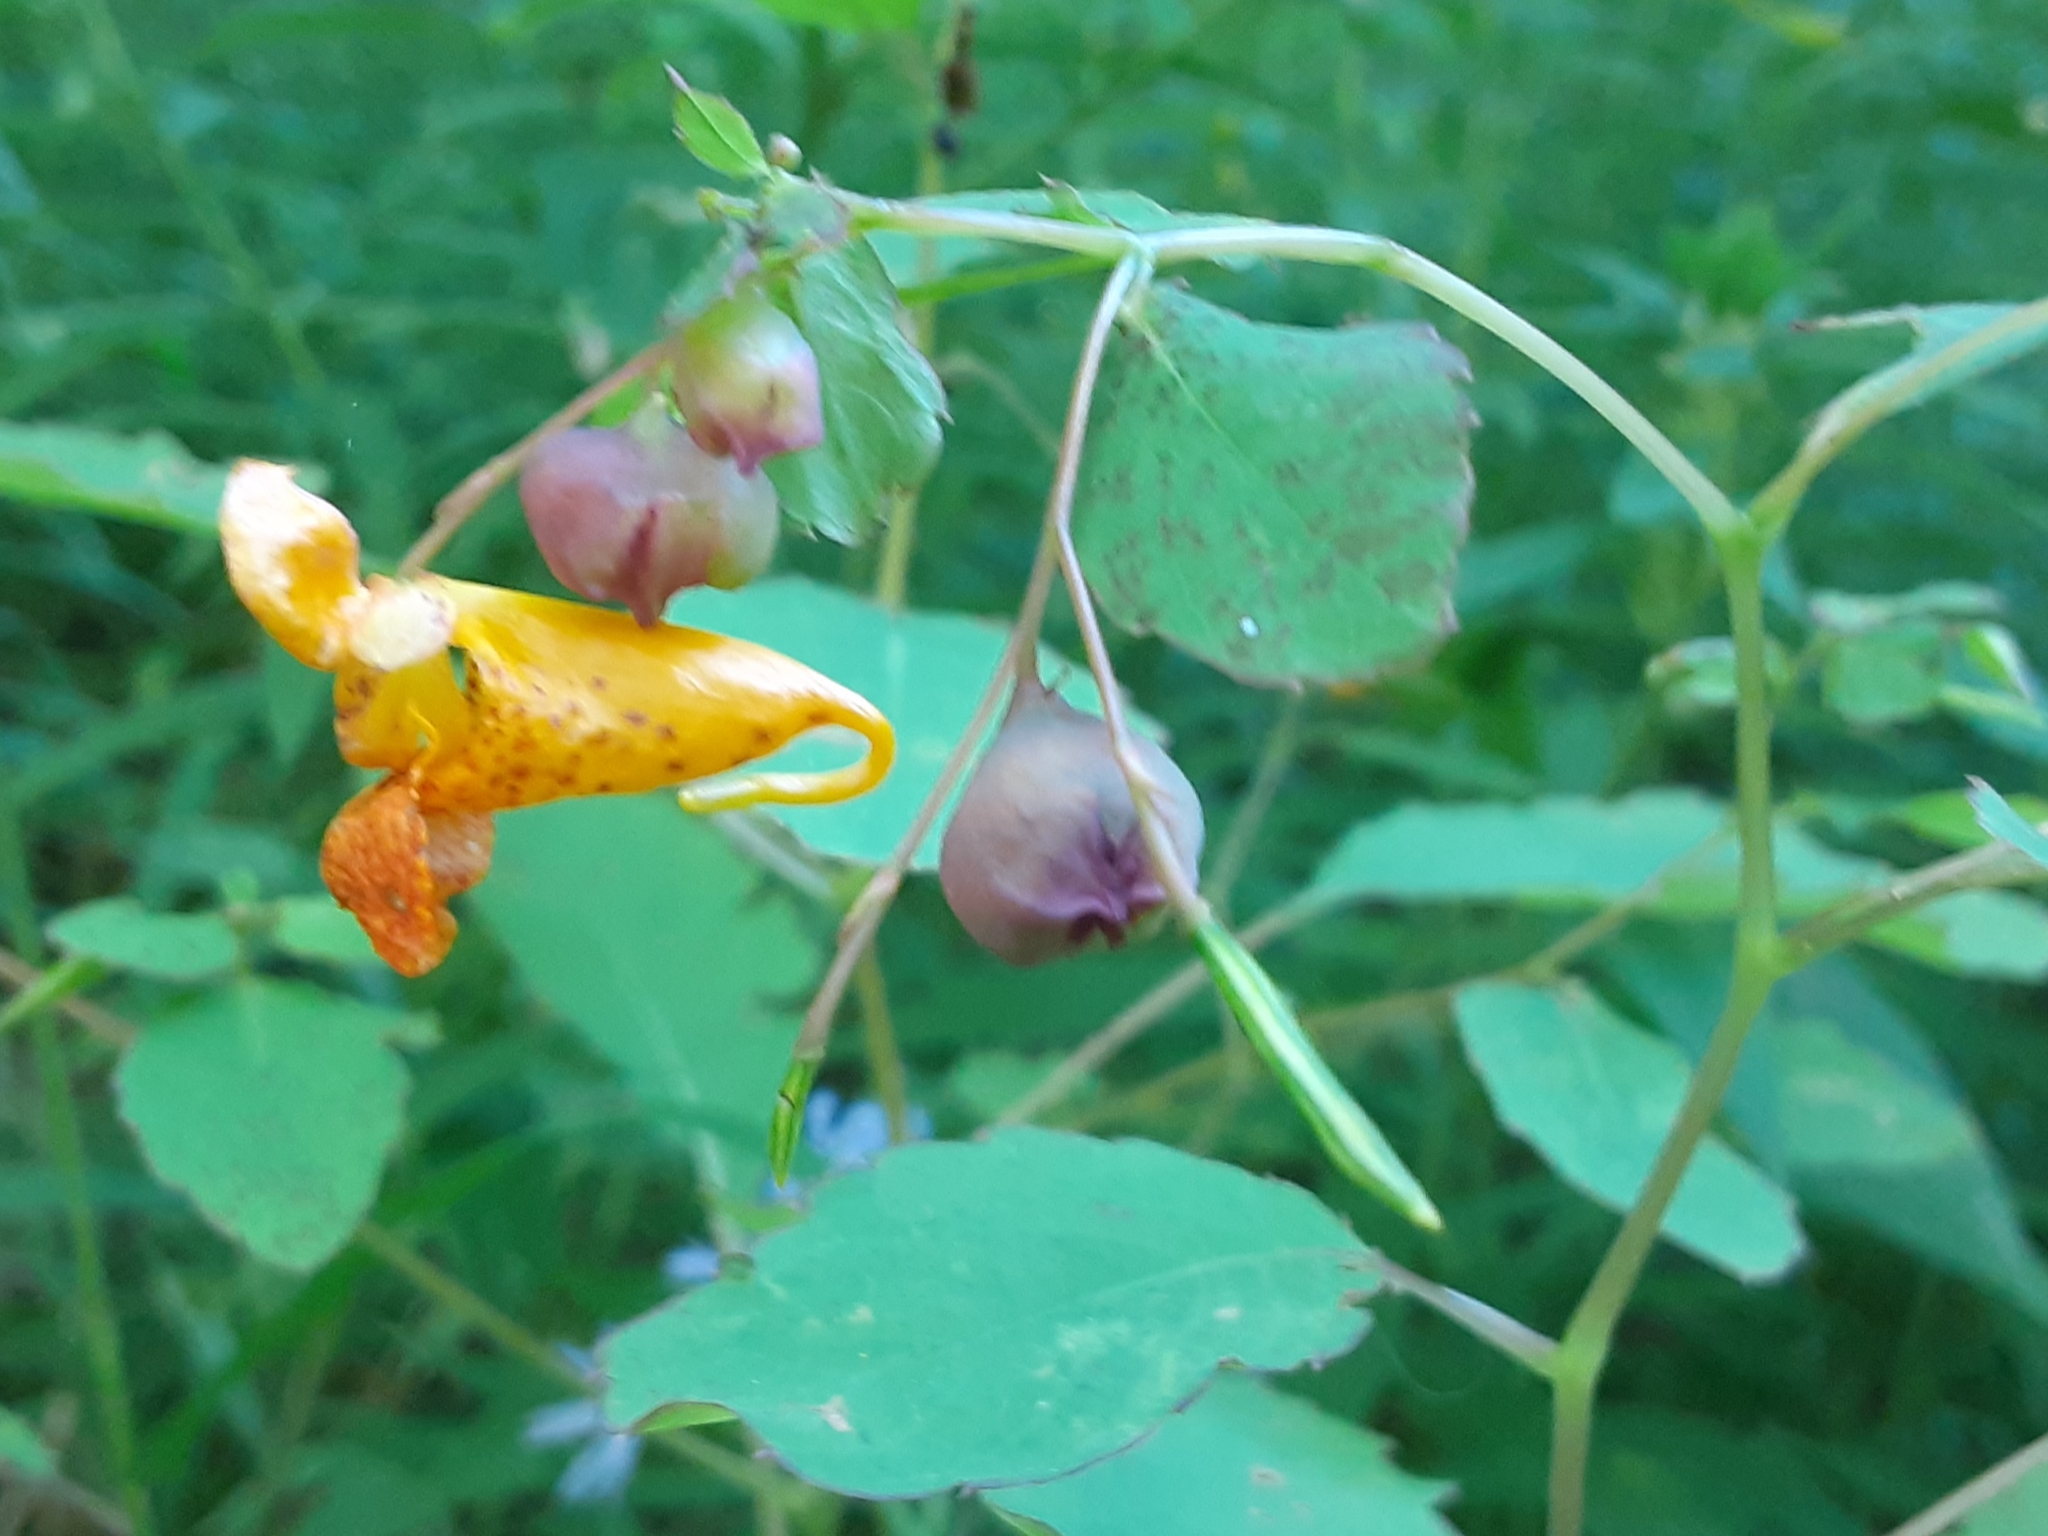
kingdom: Plantae
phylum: Tracheophyta
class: Magnoliopsida
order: Ericales
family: Balsaminaceae
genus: Impatiens
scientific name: Impatiens capensis
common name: Orange balsam
